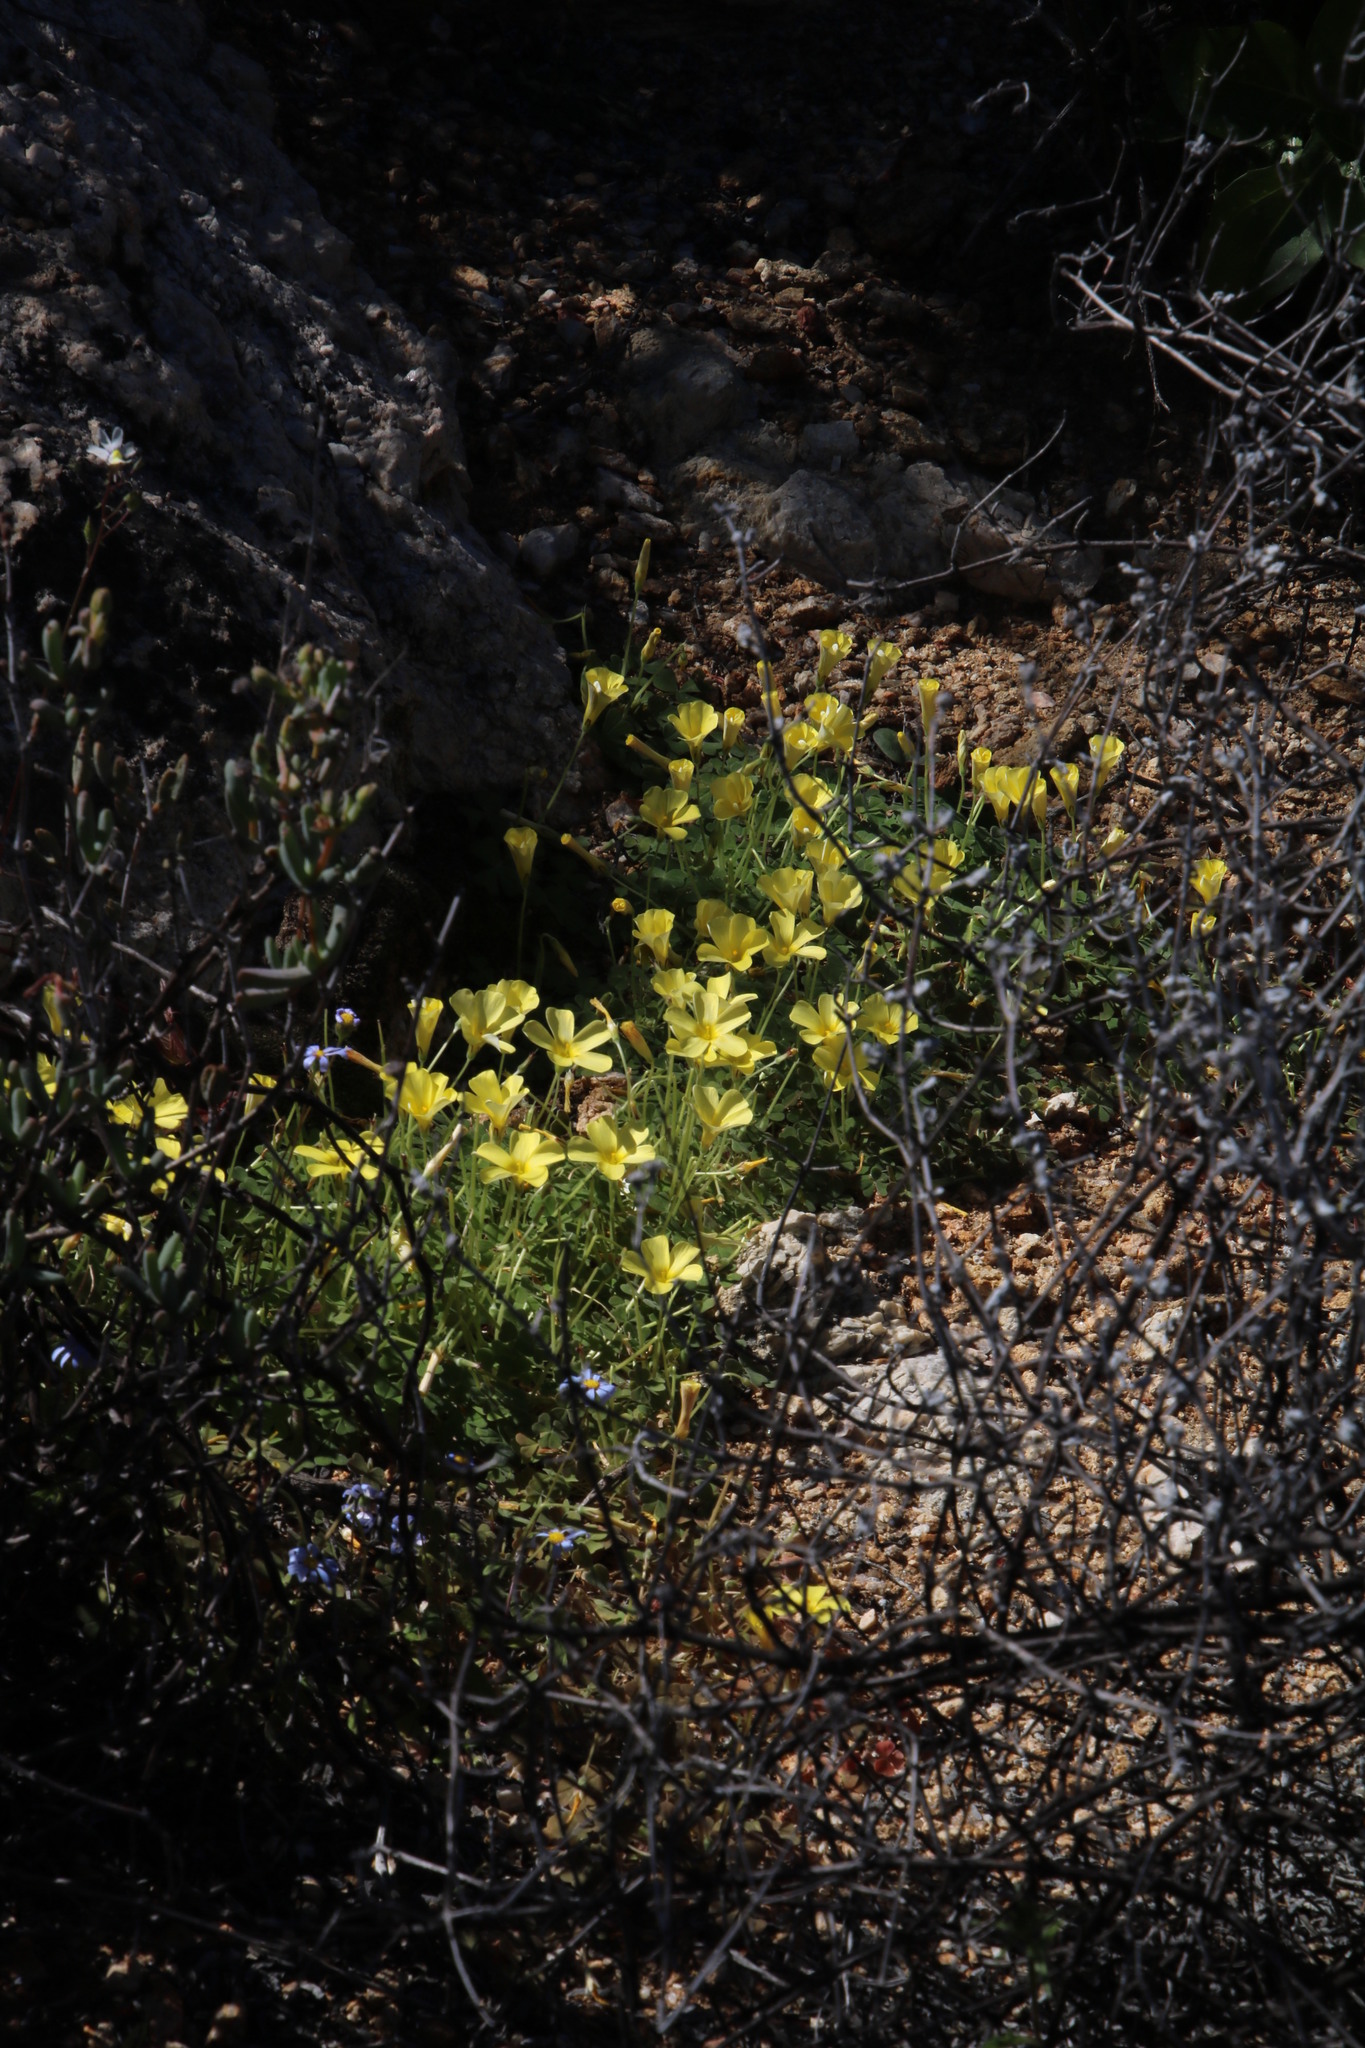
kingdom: Plantae
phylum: Tracheophyta
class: Magnoliopsida
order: Oxalidales
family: Oxalidaceae
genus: Oxalis
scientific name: Oxalis obtusa
